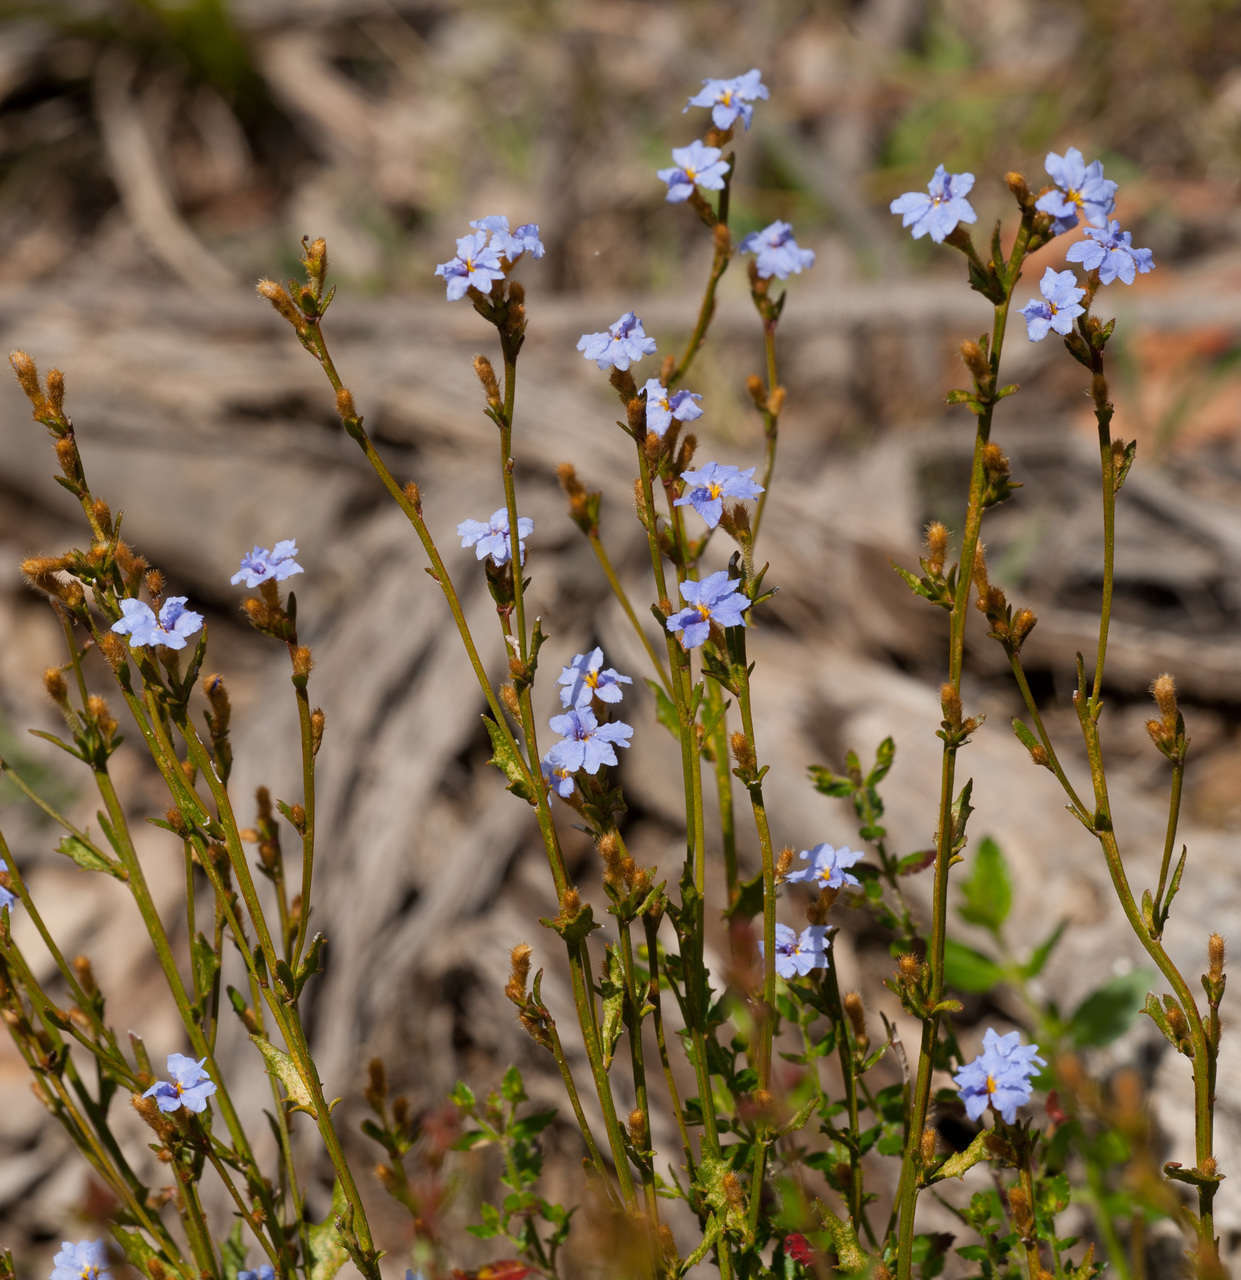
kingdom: Plantae
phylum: Tracheophyta
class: Magnoliopsida
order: Asterales
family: Goodeniaceae
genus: Dampiera
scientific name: Dampiera stricta
